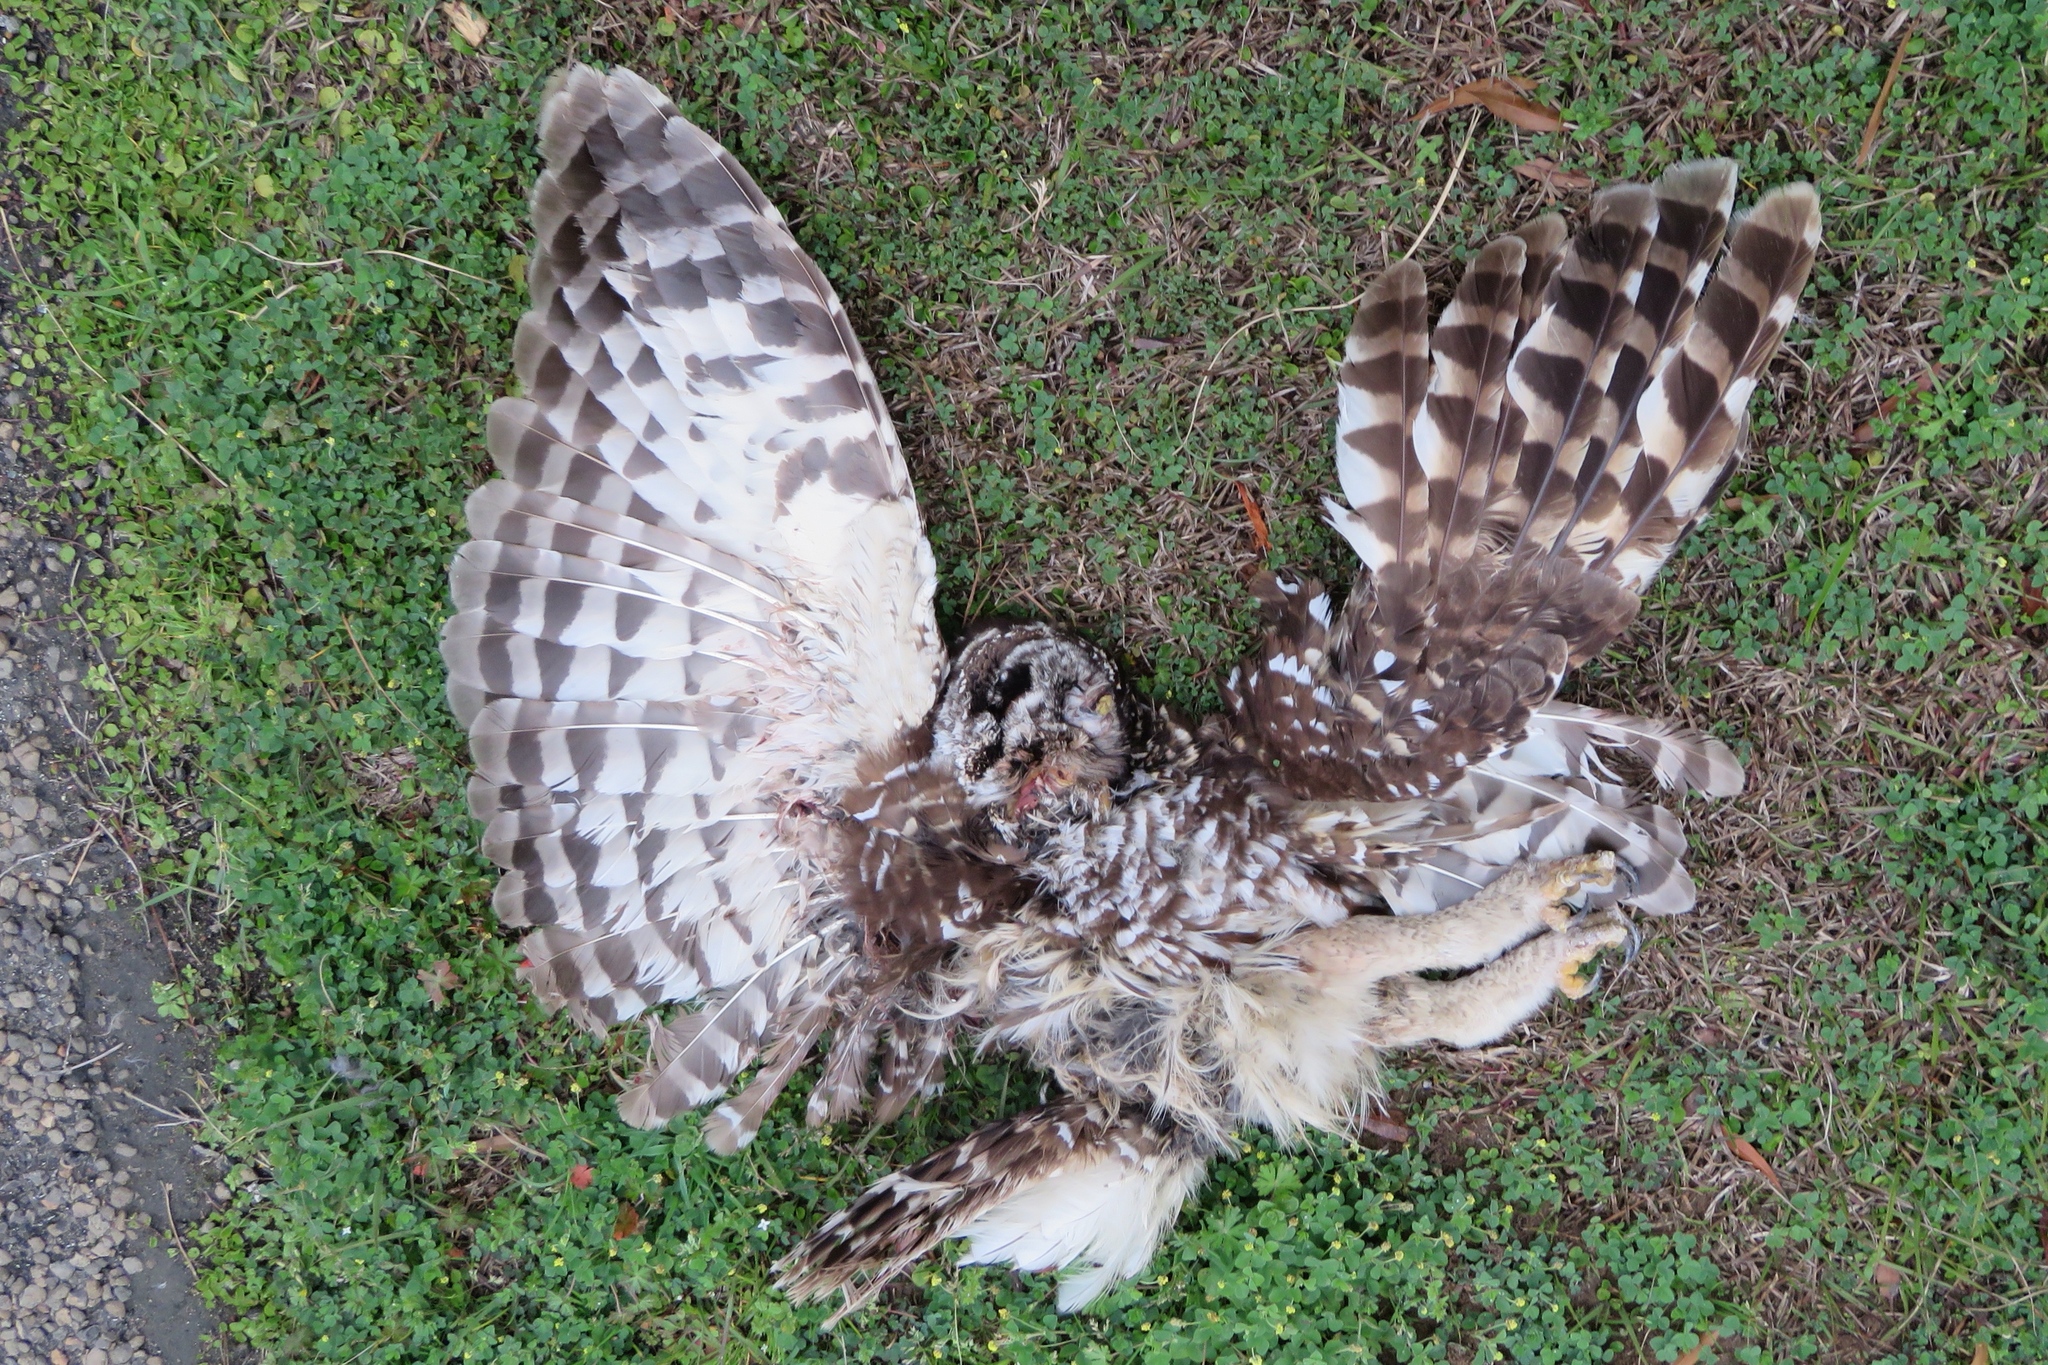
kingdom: Animalia
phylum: Chordata
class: Aves
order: Strigiformes
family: Strigidae
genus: Strix
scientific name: Strix varia
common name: Barred owl
